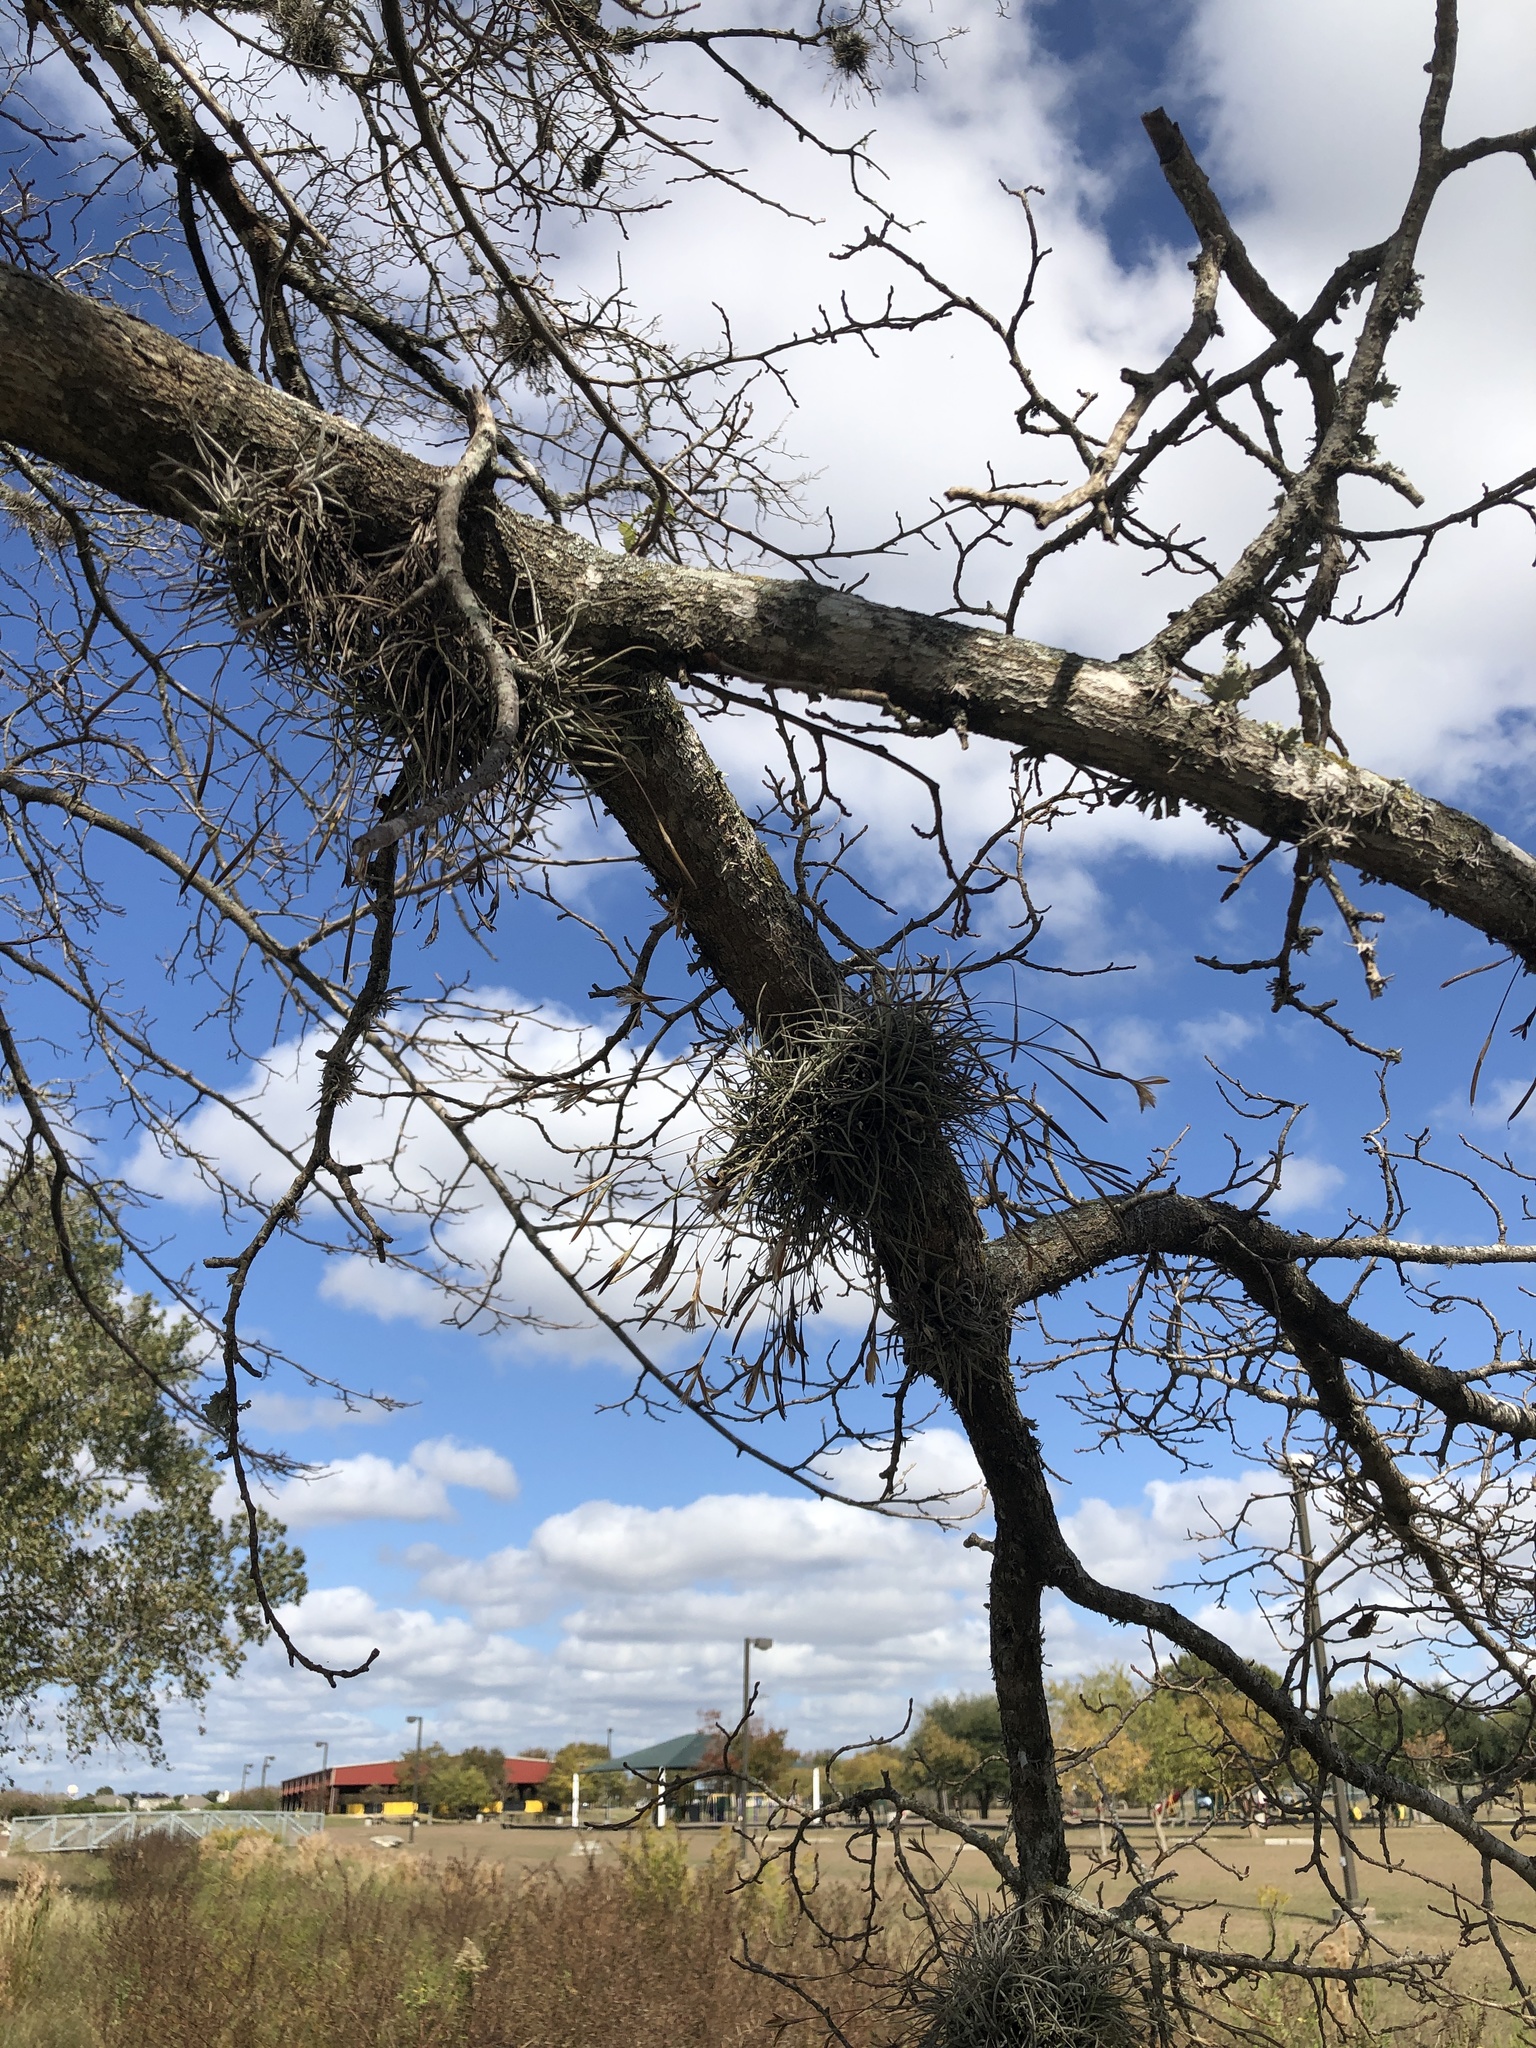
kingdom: Plantae
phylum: Tracheophyta
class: Liliopsida
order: Poales
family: Bromeliaceae
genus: Tillandsia
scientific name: Tillandsia recurvata
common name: Small ballmoss
